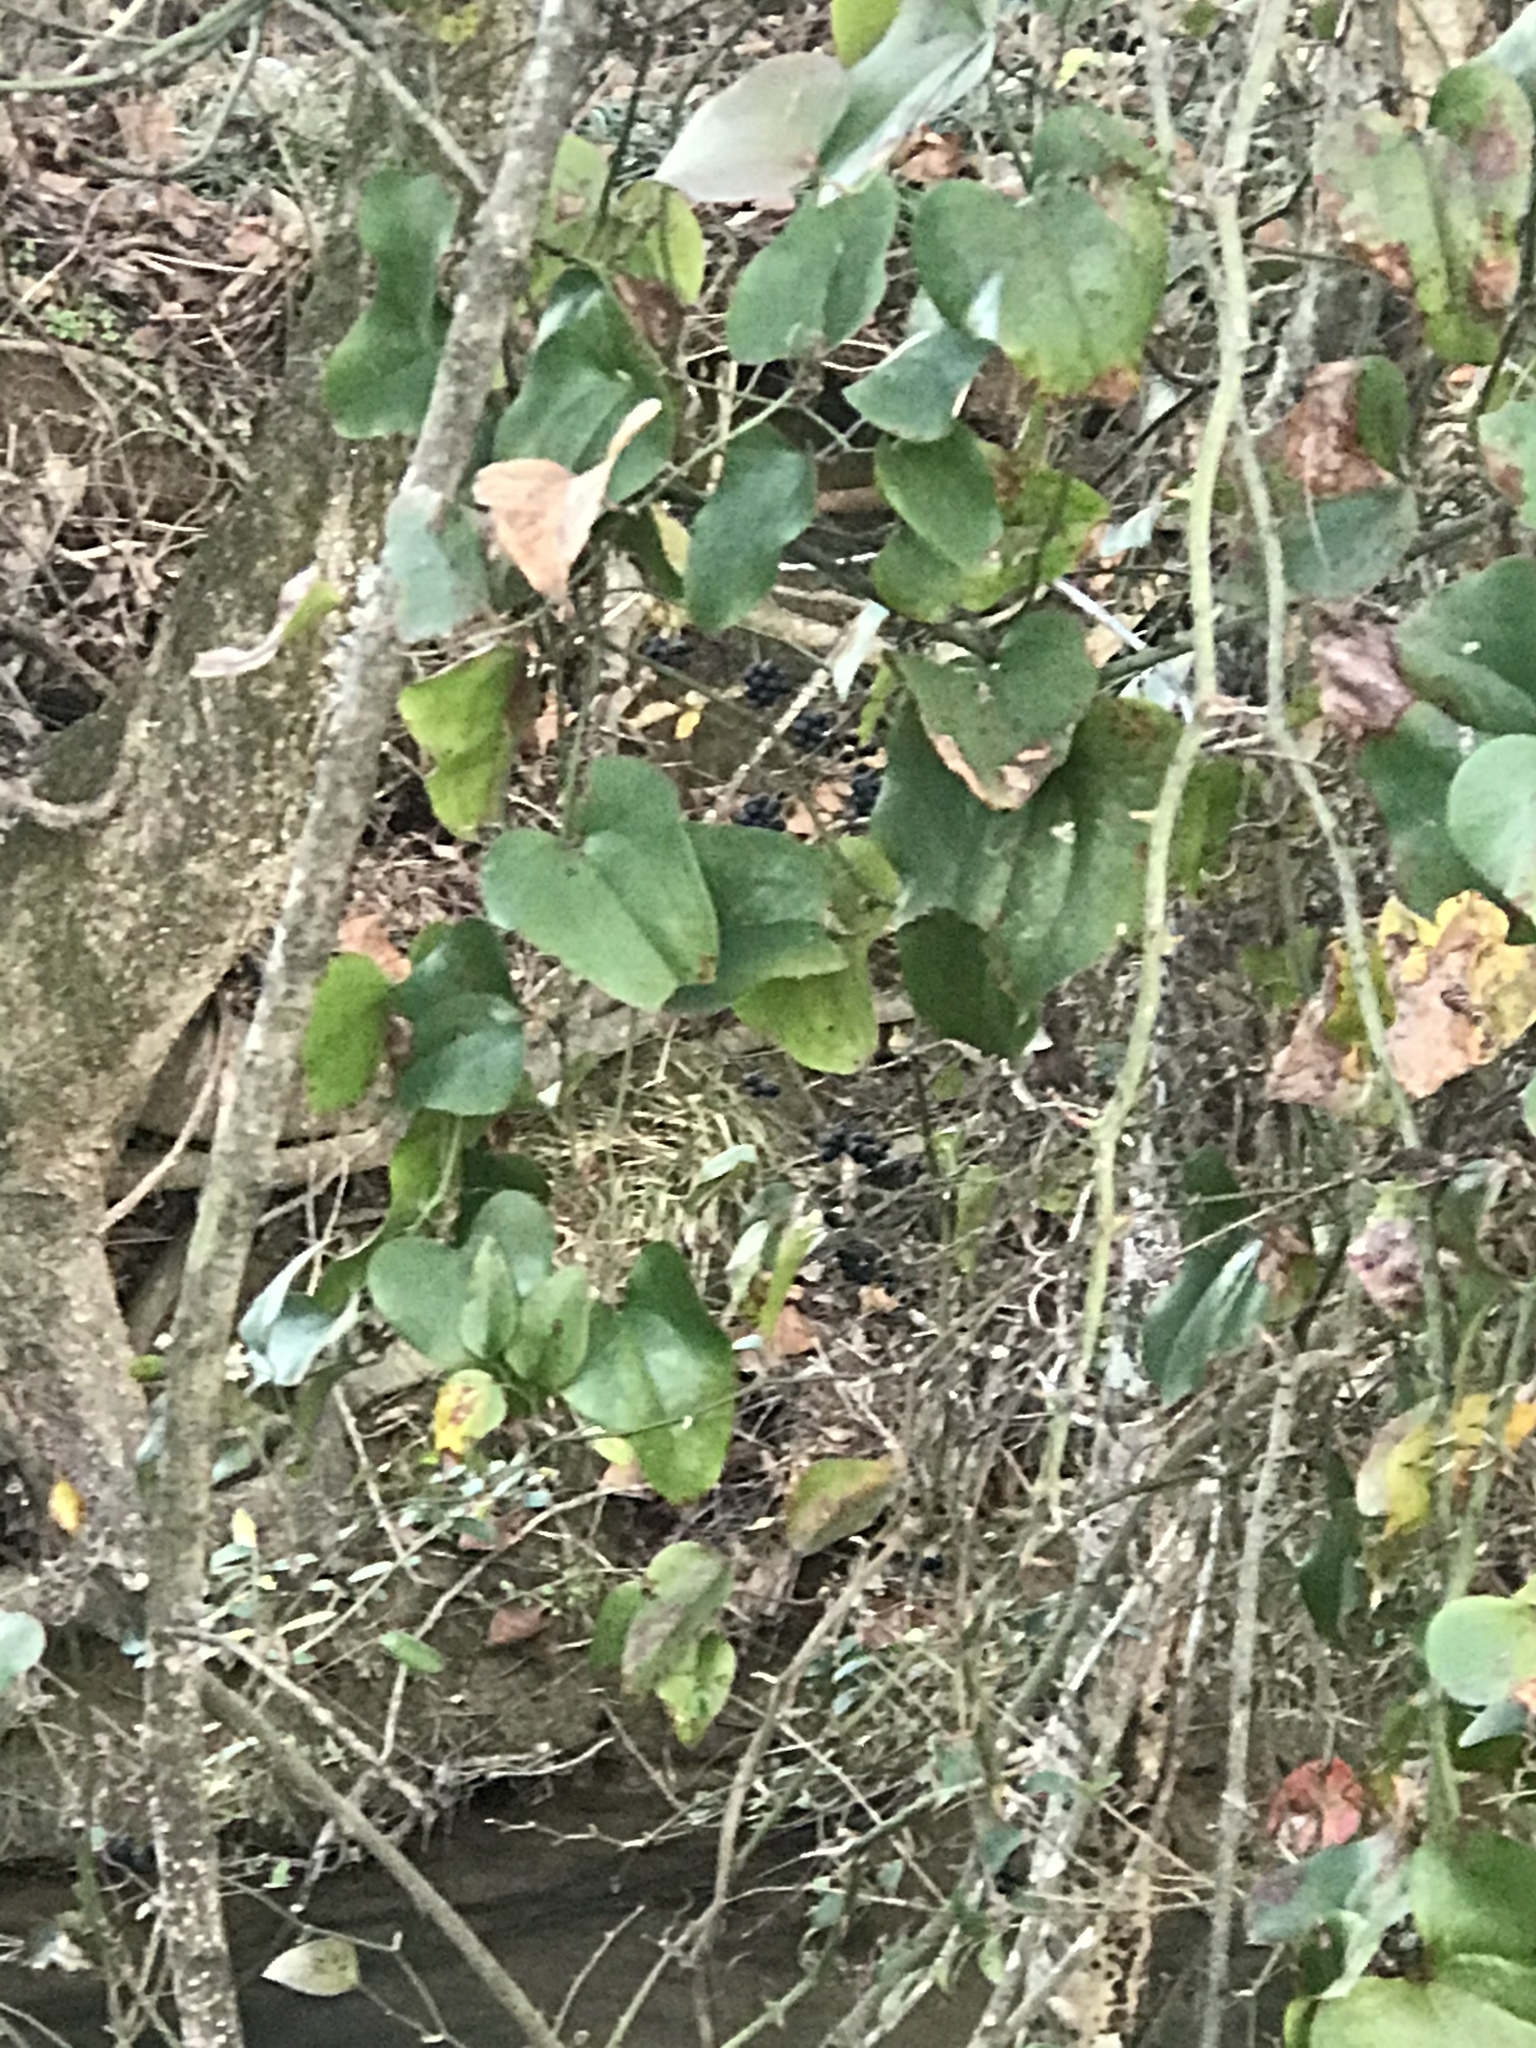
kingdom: Plantae
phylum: Tracheophyta
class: Liliopsida
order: Liliales
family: Smilacaceae
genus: Smilax
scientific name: Smilax glauca
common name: Cat greenbrier
